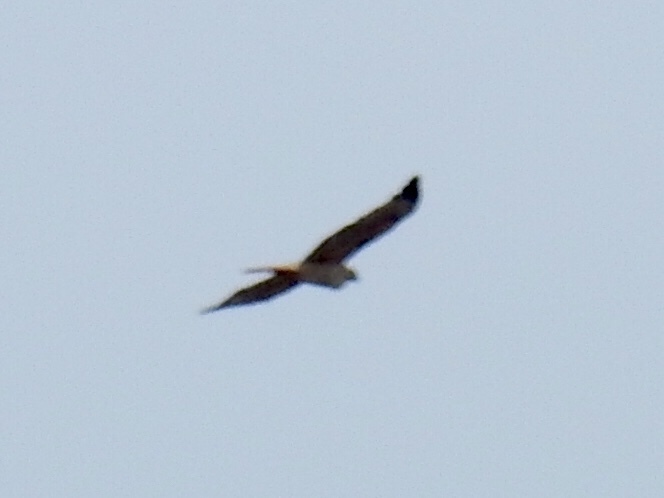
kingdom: Animalia
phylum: Chordata
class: Aves
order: Accipitriformes
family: Accipitridae
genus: Buteo
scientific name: Buteo jamaicensis
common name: Red-tailed hawk
